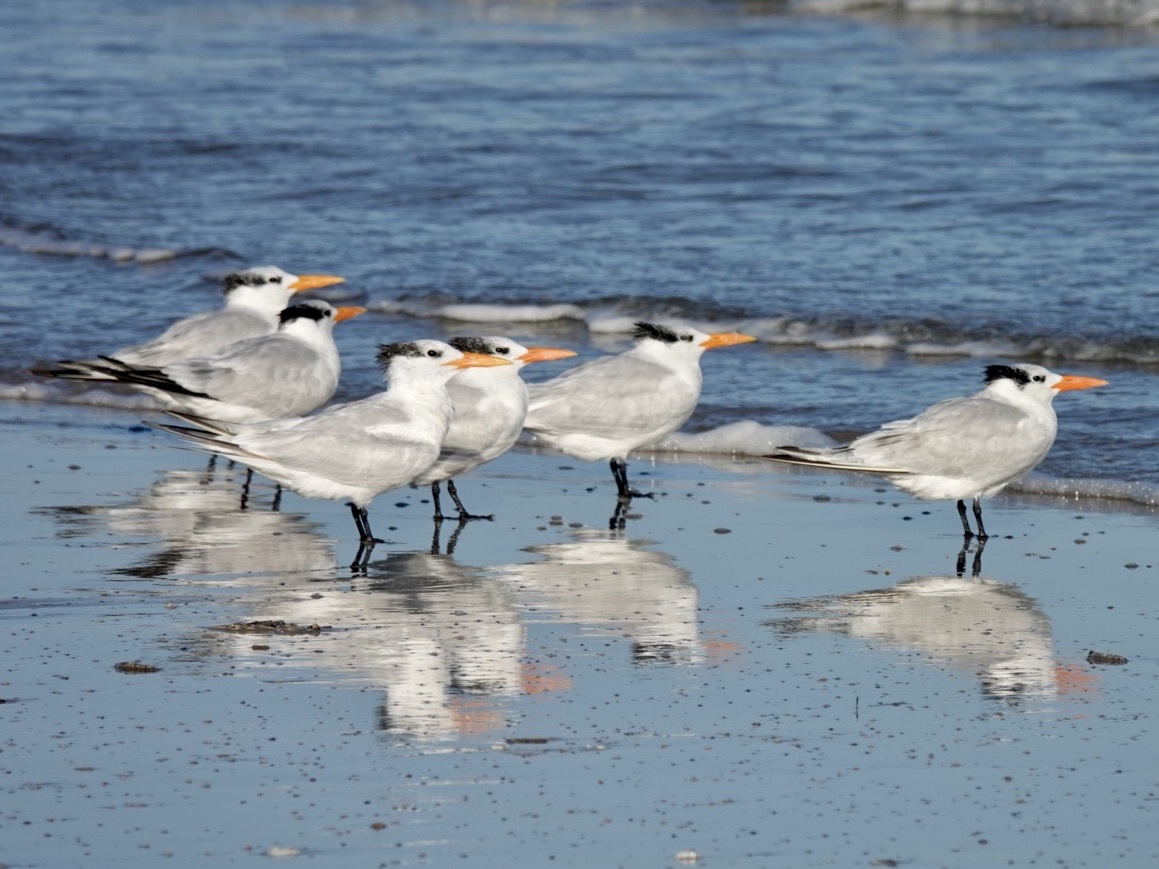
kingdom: Animalia
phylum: Chordata
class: Aves
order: Charadriiformes
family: Laridae
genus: Thalasseus
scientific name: Thalasseus maximus
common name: Royal tern
